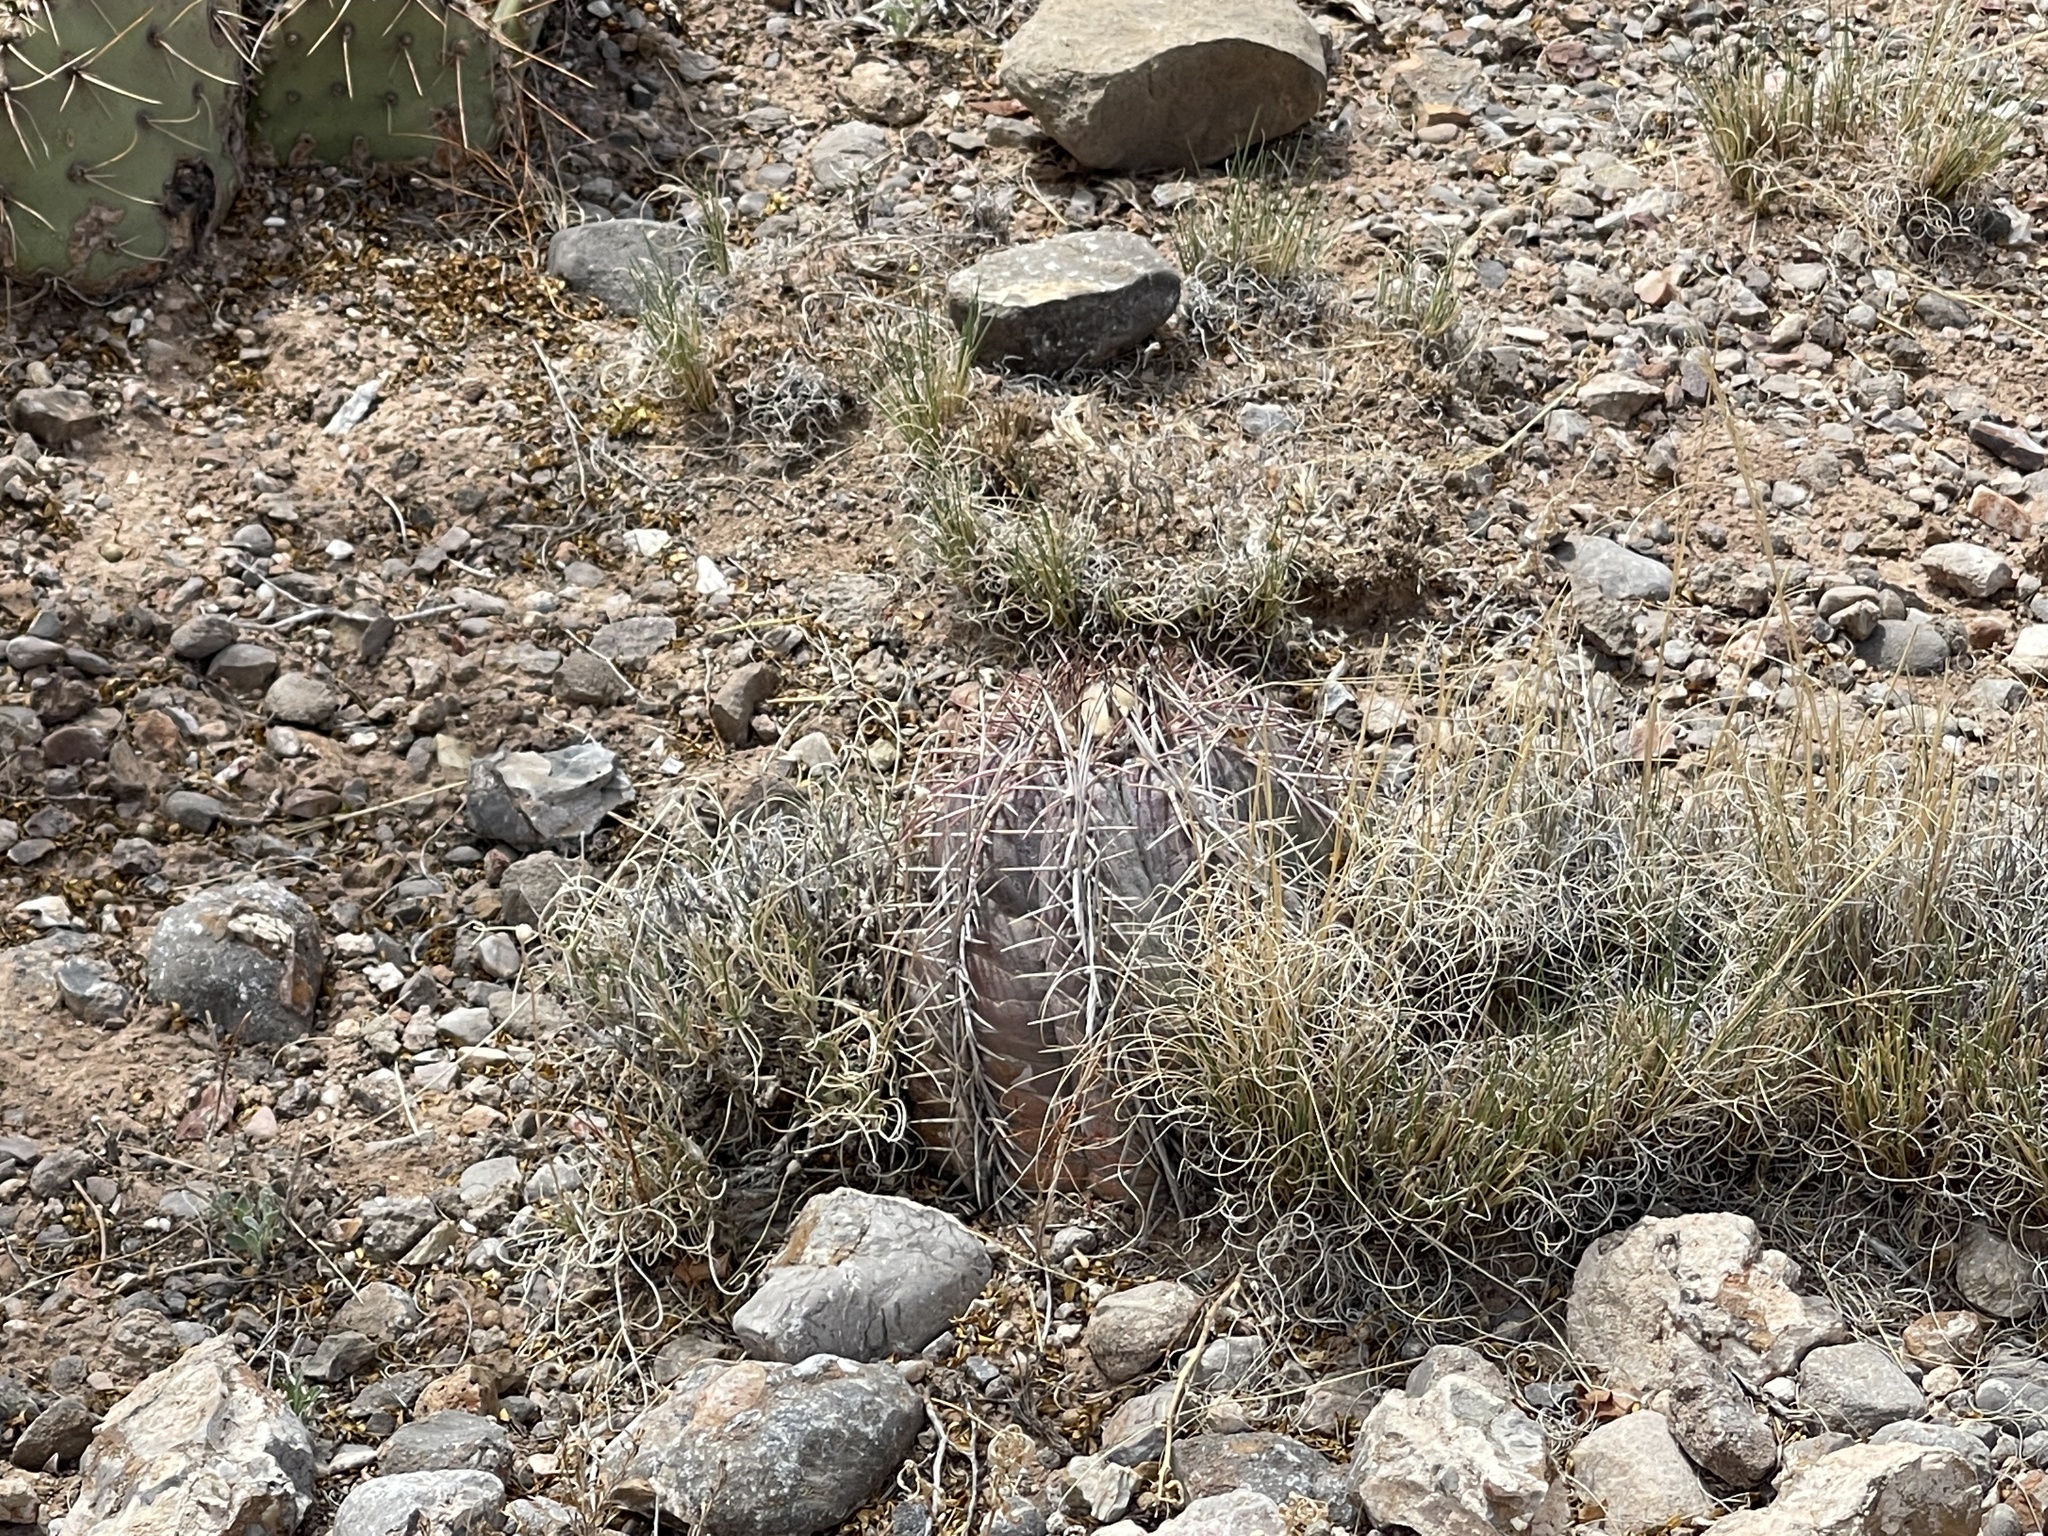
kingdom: Plantae
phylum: Tracheophyta
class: Magnoliopsida
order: Caryophyllales
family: Cactaceae
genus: Echinocactus
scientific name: Echinocactus horizonthalonius
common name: Devilshead
